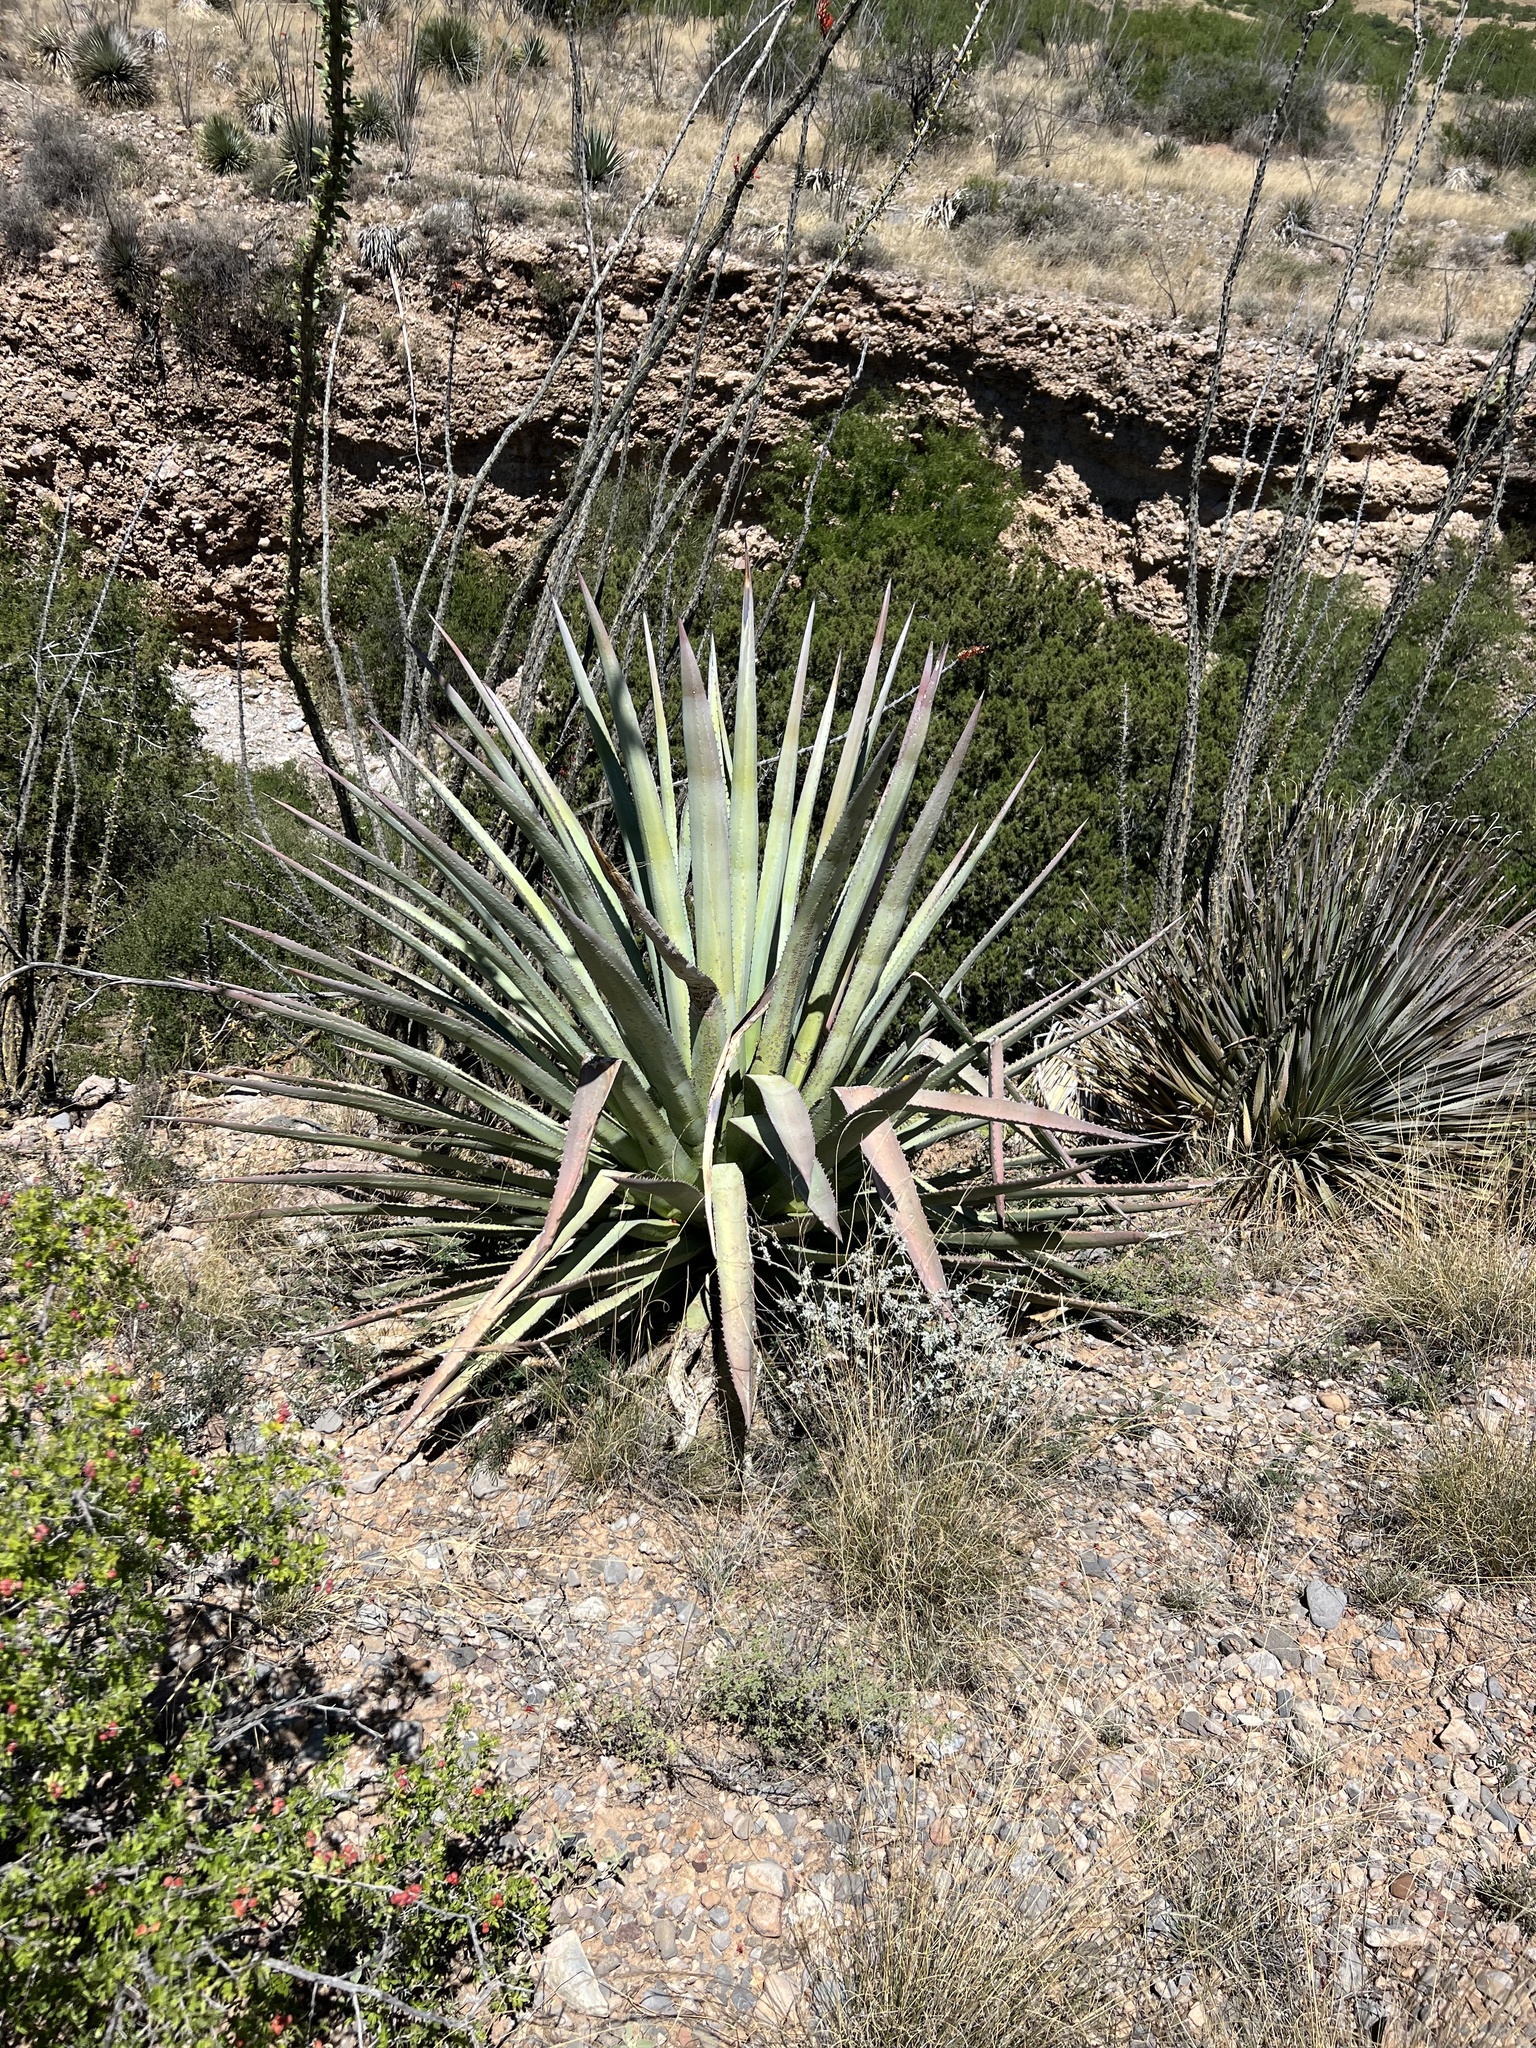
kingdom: Plantae
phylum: Tracheophyta
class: Liliopsida
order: Asparagales
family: Asparagaceae
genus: Agave
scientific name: Agave palmeri
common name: Palmer agave
